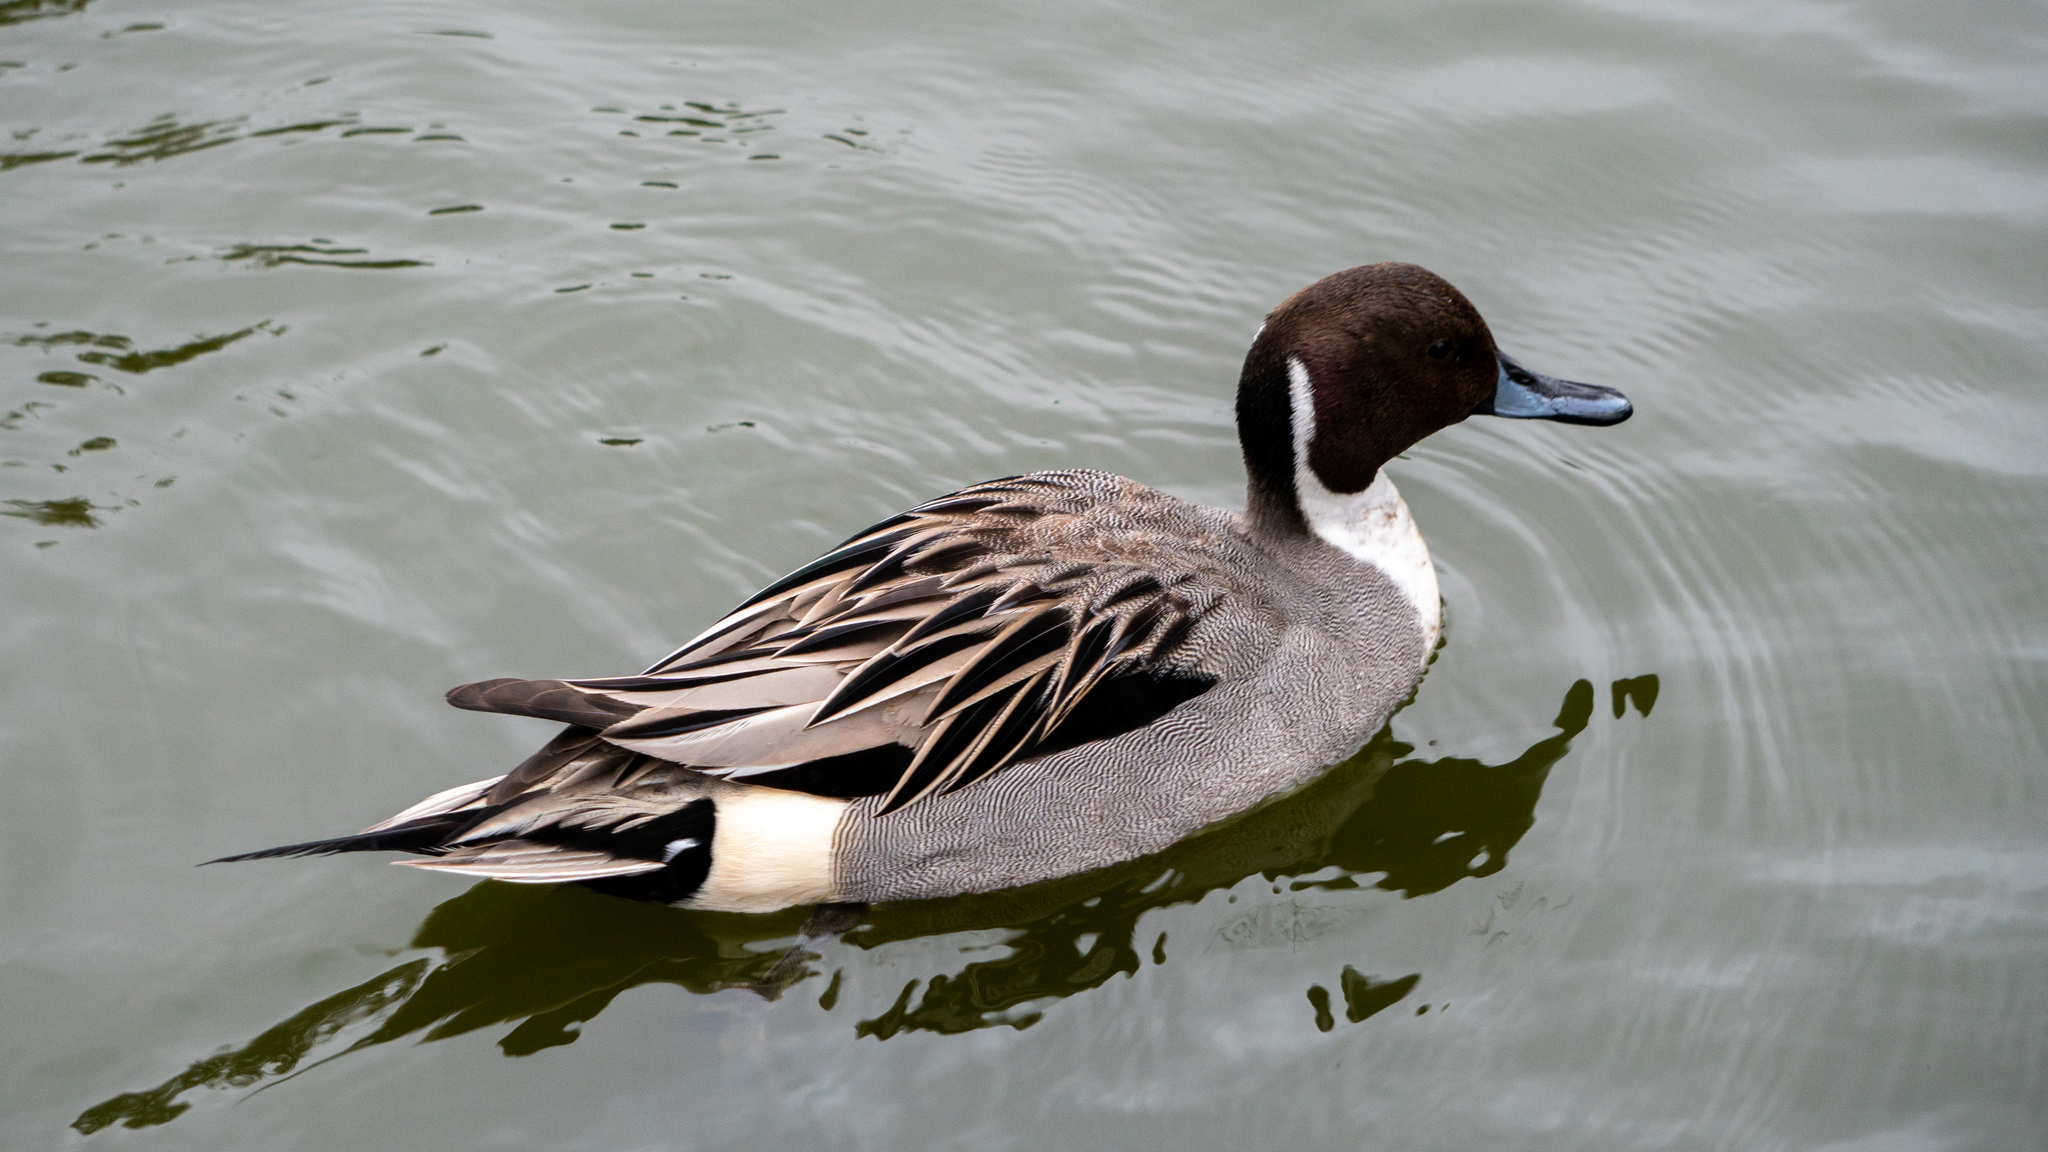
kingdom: Animalia
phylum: Chordata
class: Aves
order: Anseriformes
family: Anatidae
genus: Anas
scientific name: Anas acuta
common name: Northern pintail
